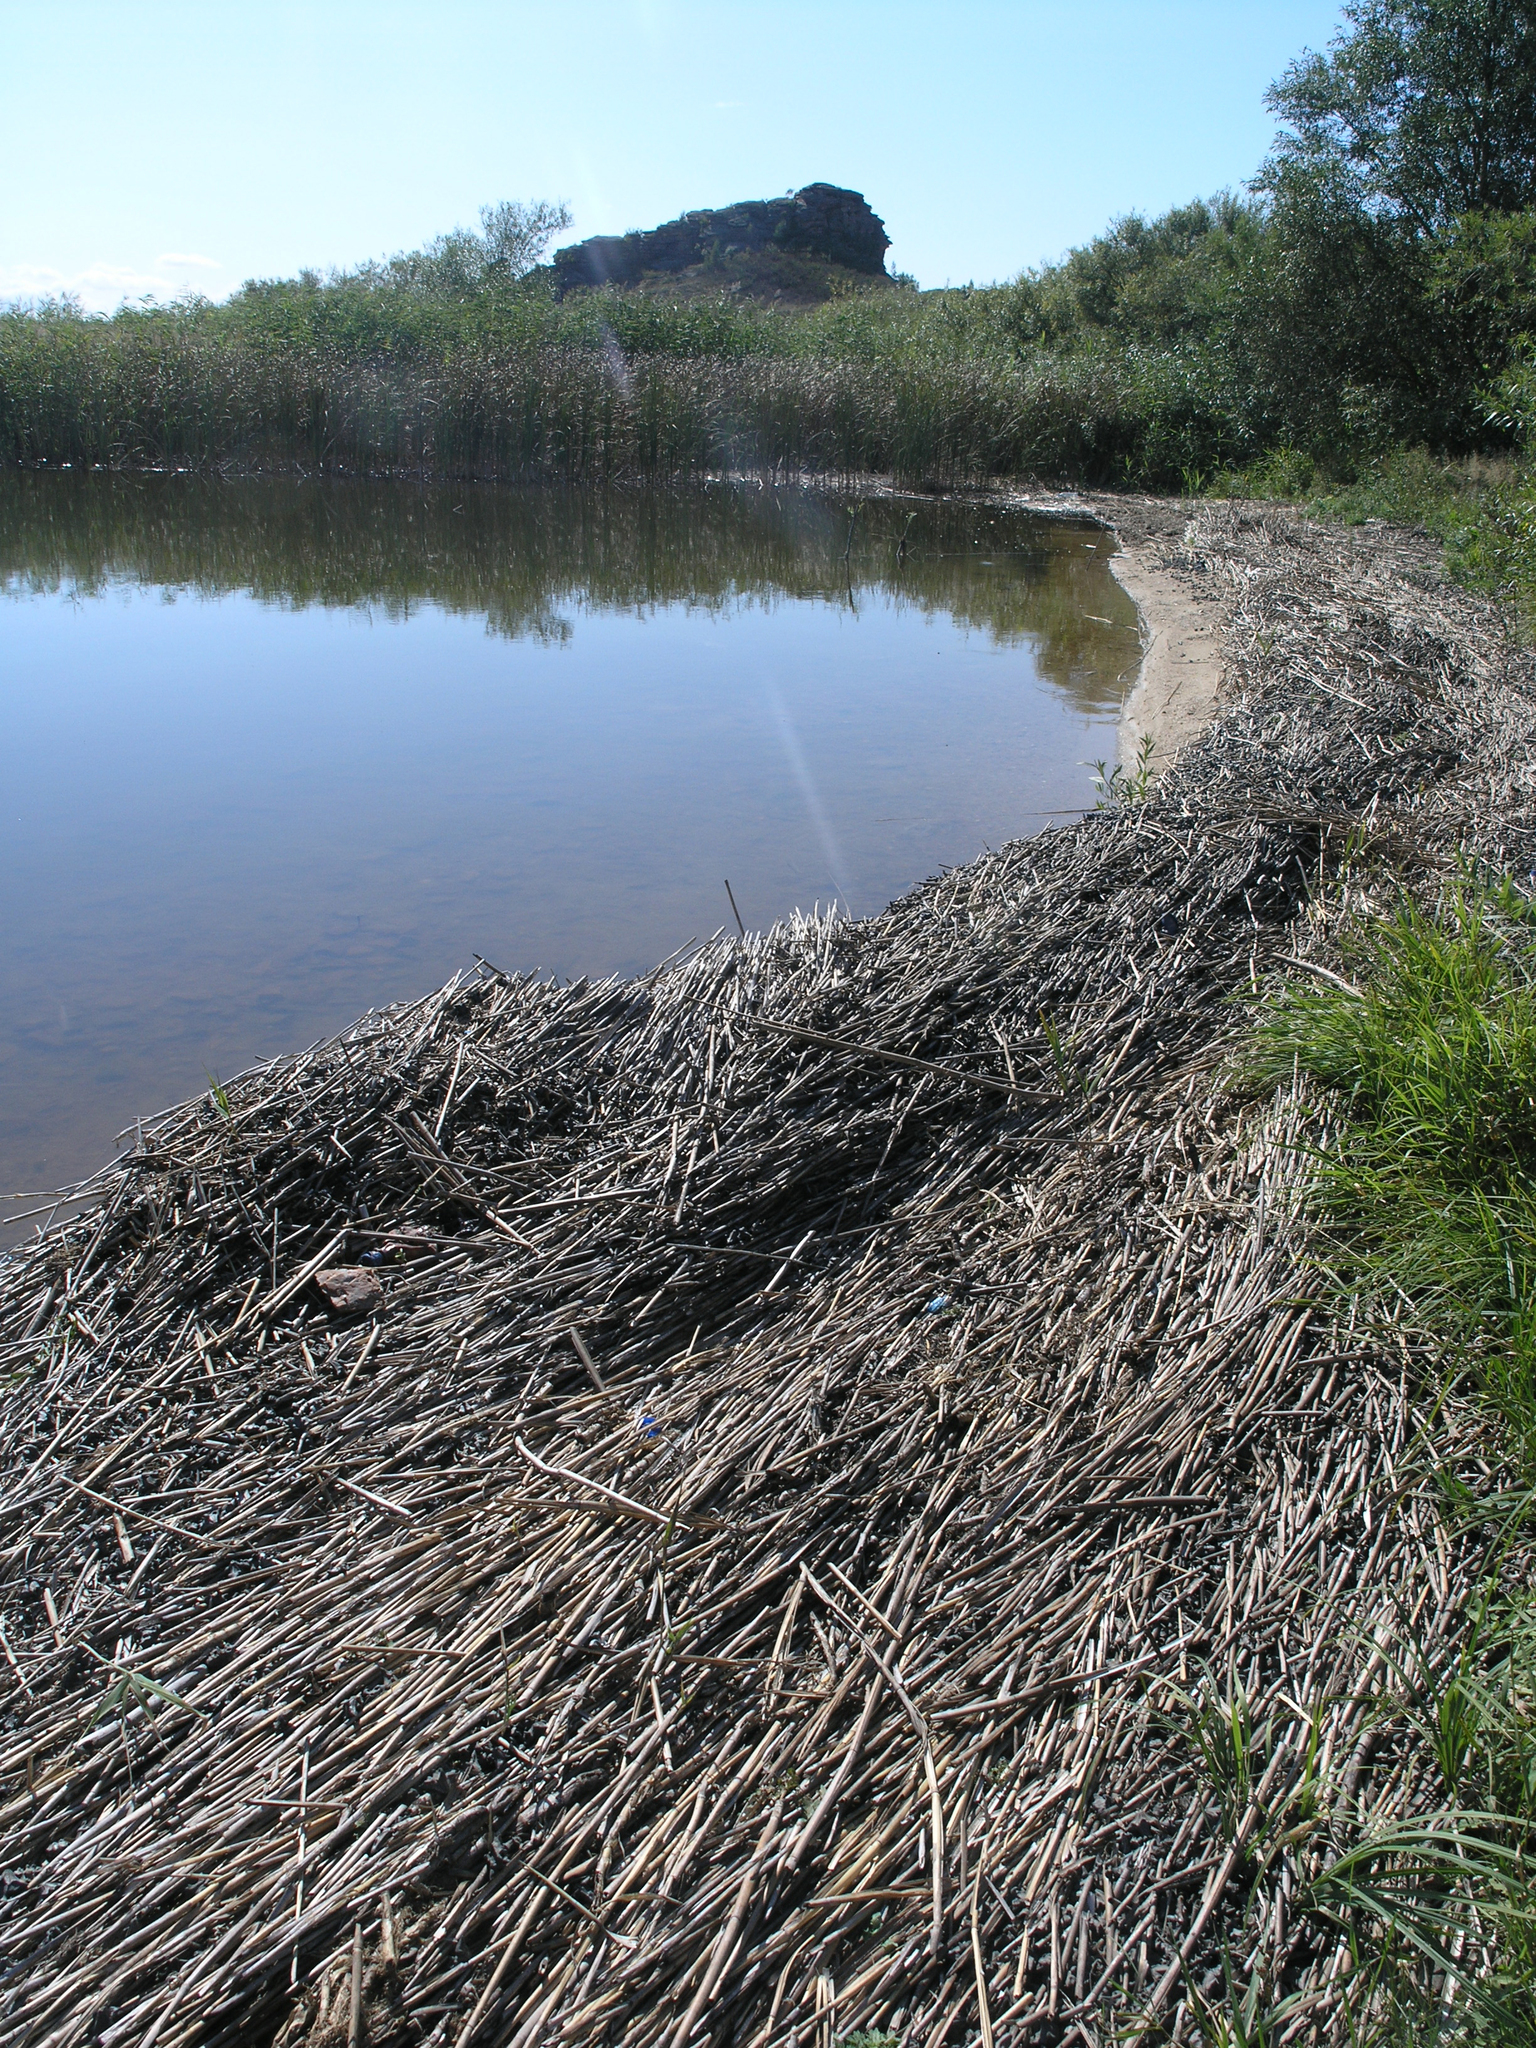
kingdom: Plantae
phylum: Tracheophyta
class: Liliopsida
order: Poales
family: Poaceae
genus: Phragmites
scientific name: Phragmites australis
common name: Common reed
